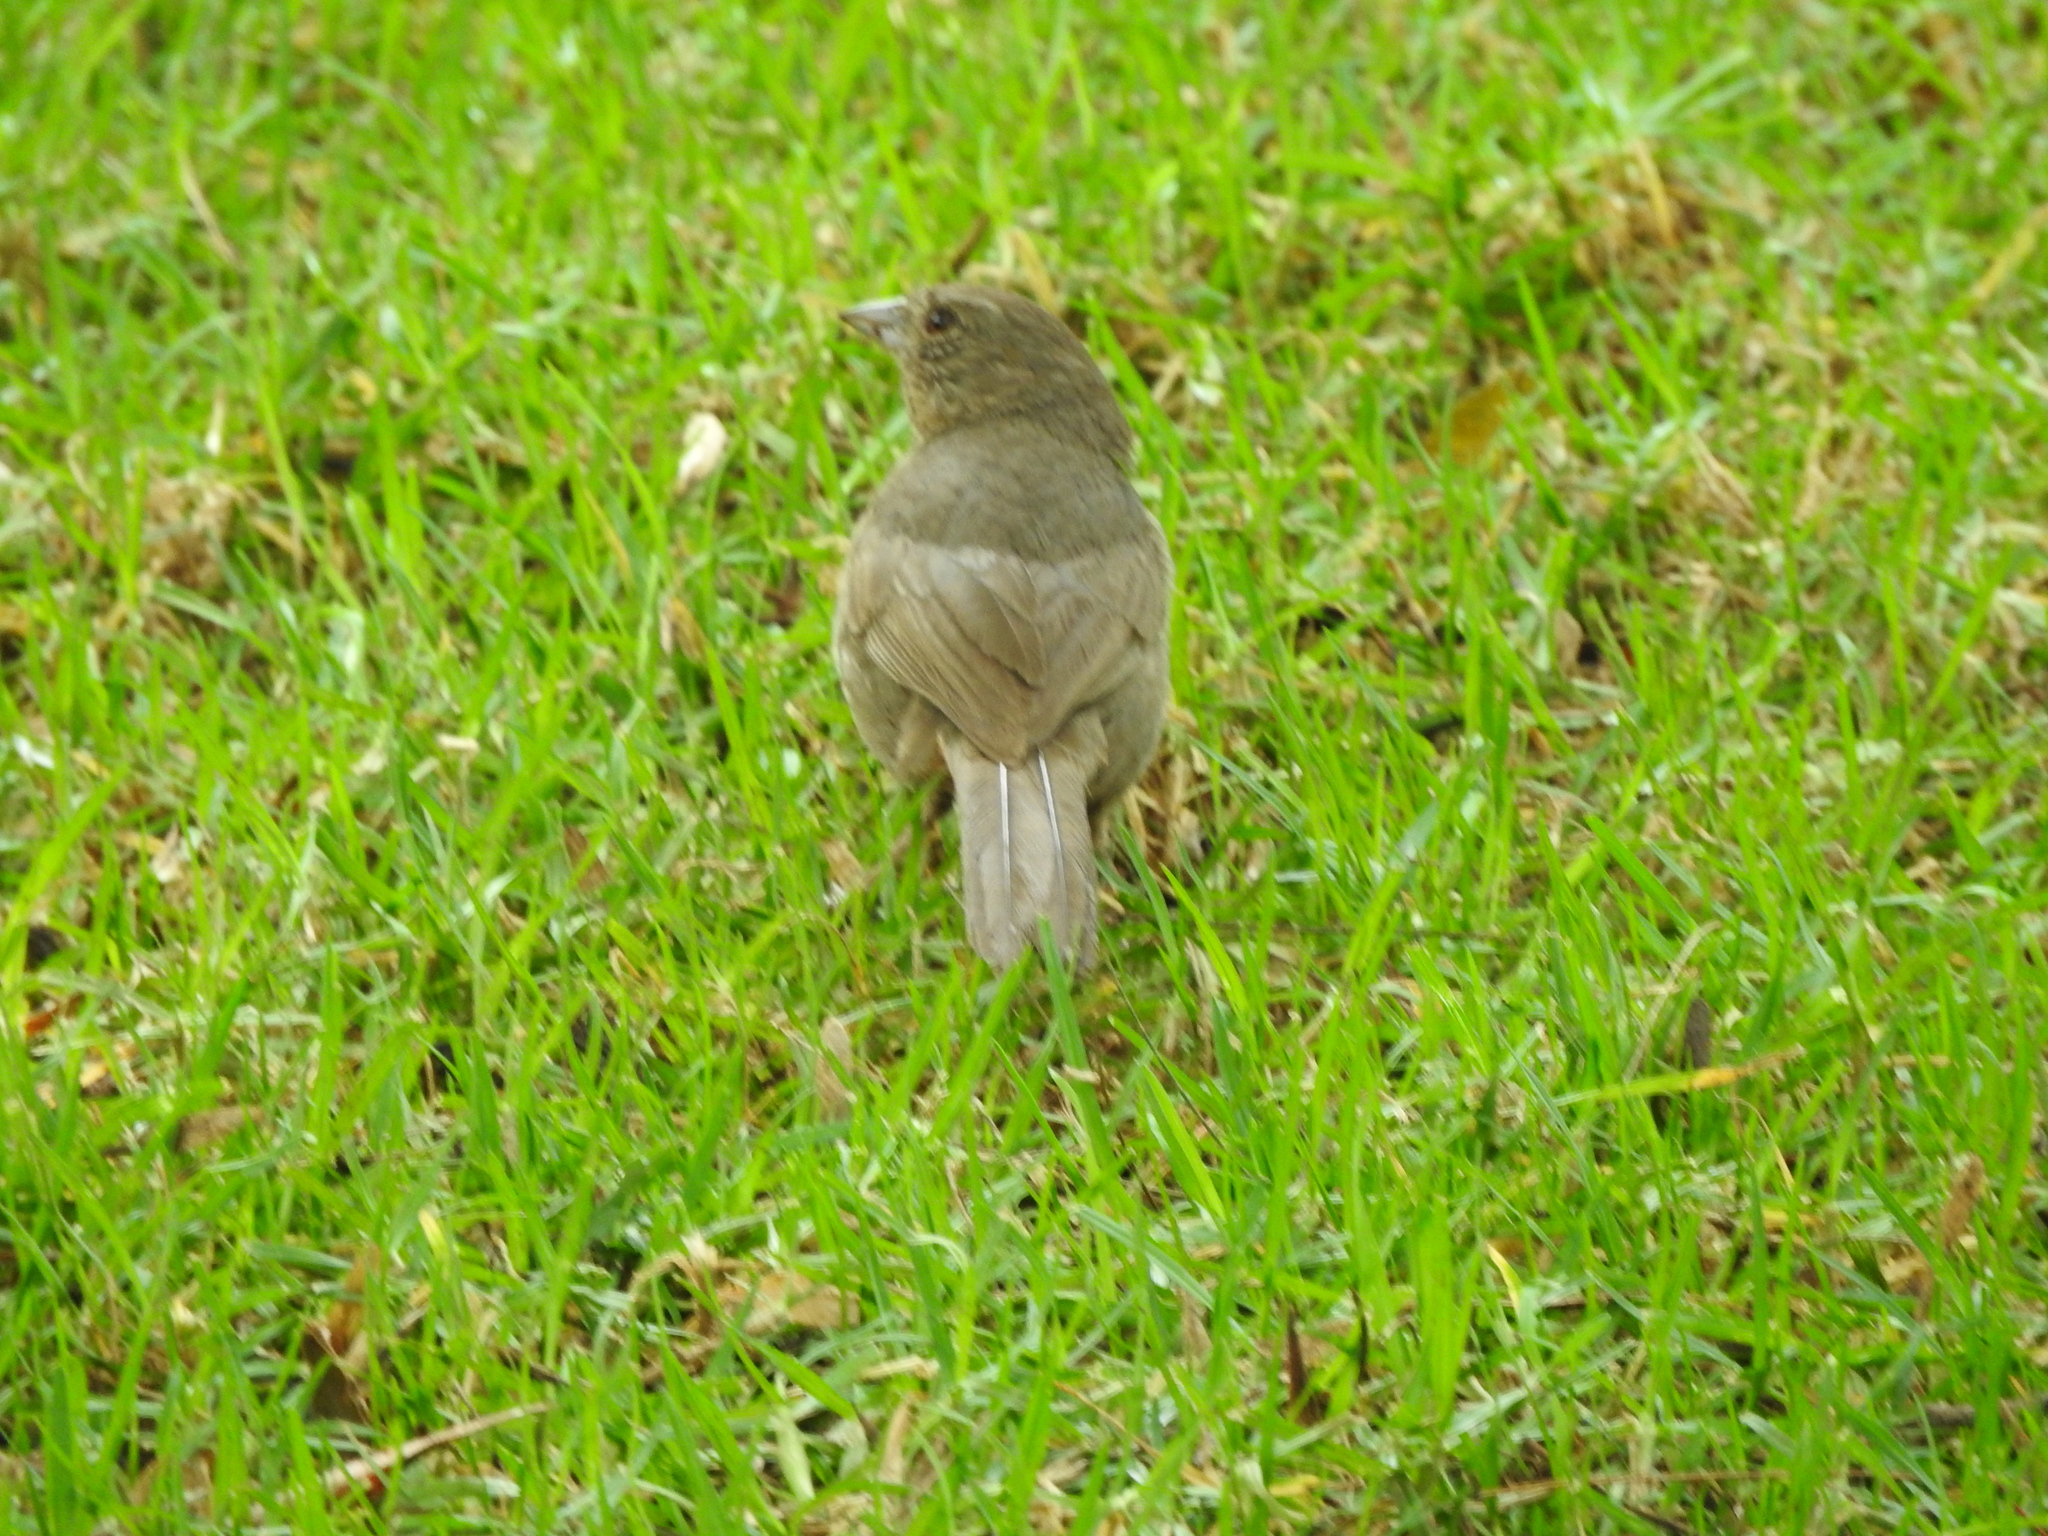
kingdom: Animalia
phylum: Chordata
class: Aves
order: Passeriformes
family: Passerellidae
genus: Melozone
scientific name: Melozone fusca
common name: Canyon towhee
